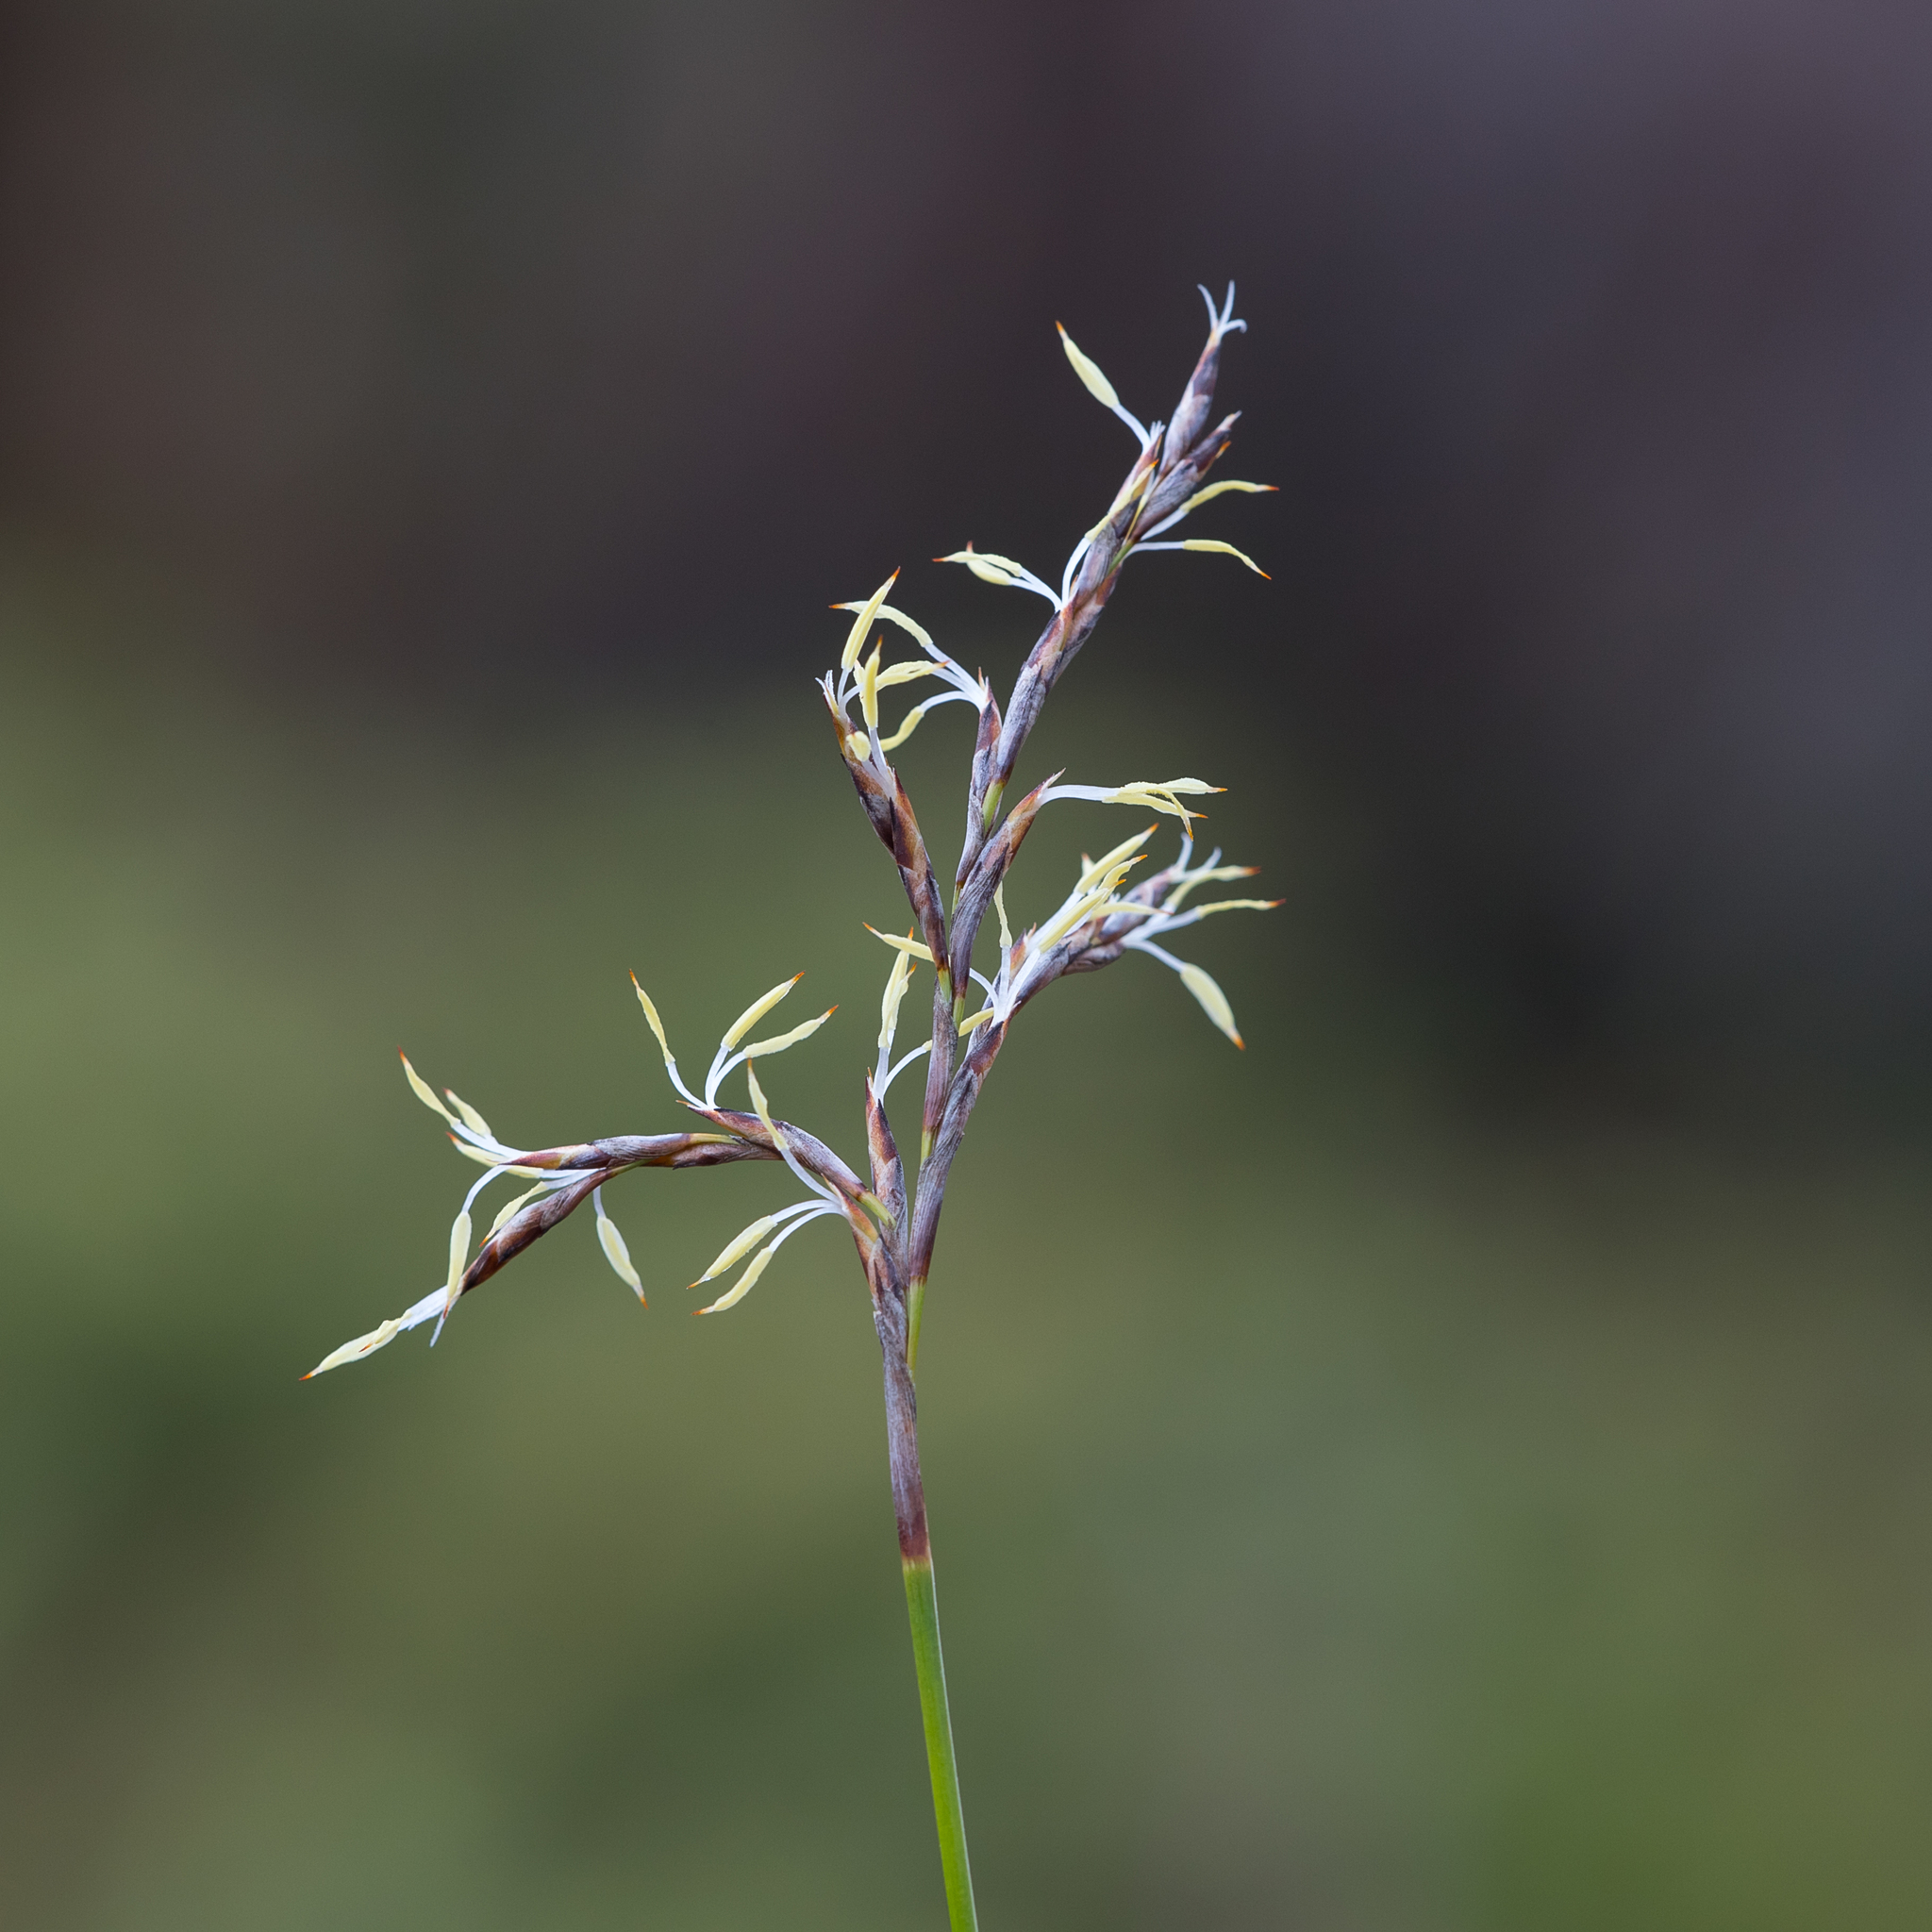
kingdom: Plantae
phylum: Tracheophyta
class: Liliopsida
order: Poales
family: Cyperaceae
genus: Lepidosperma
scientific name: Lepidosperma semiteres
